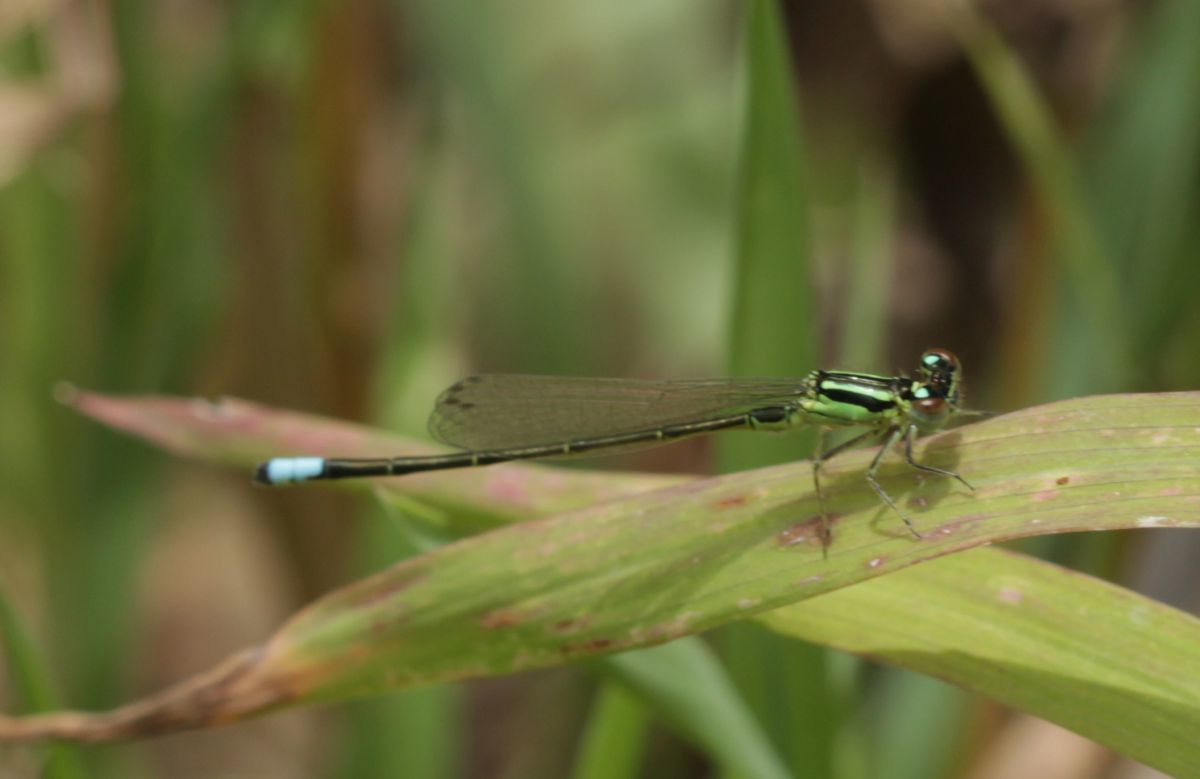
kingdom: Animalia
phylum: Arthropoda
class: Insecta
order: Odonata
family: Coenagrionidae
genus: Ischnura
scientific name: Ischnura verticalis
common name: Eastern forktail
